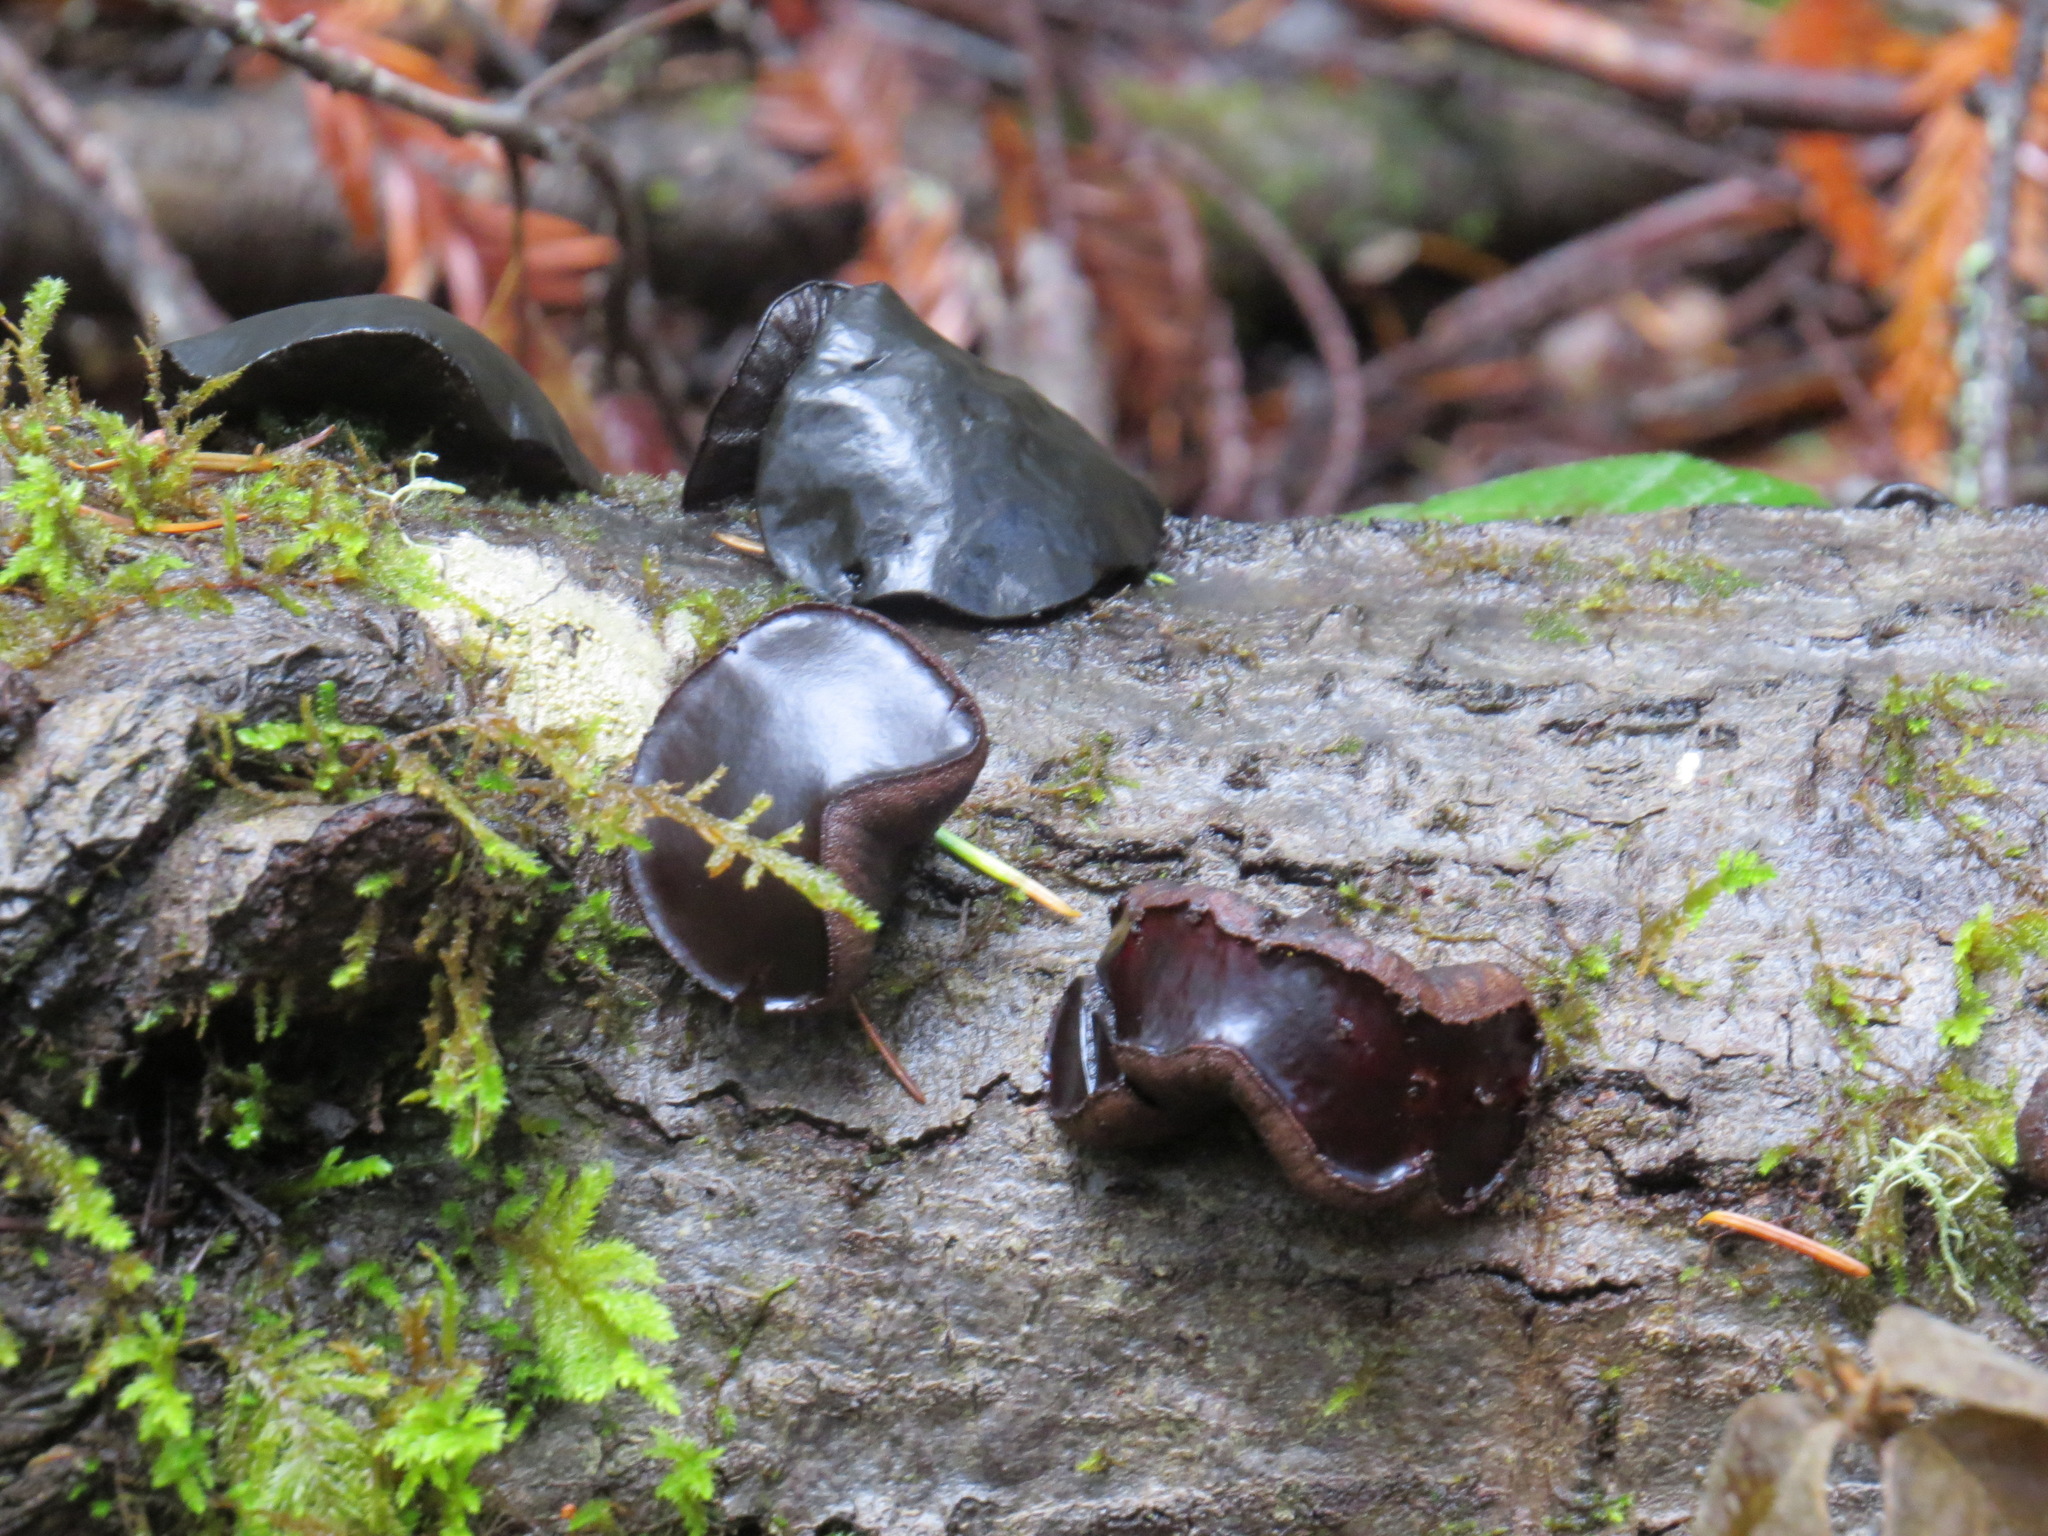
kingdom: Fungi
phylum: Ascomycota
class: Leotiomycetes
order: Phacidiales
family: Phacidiaceae
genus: Bulgaria
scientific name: Bulgaria inquinans
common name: Black bulgar
